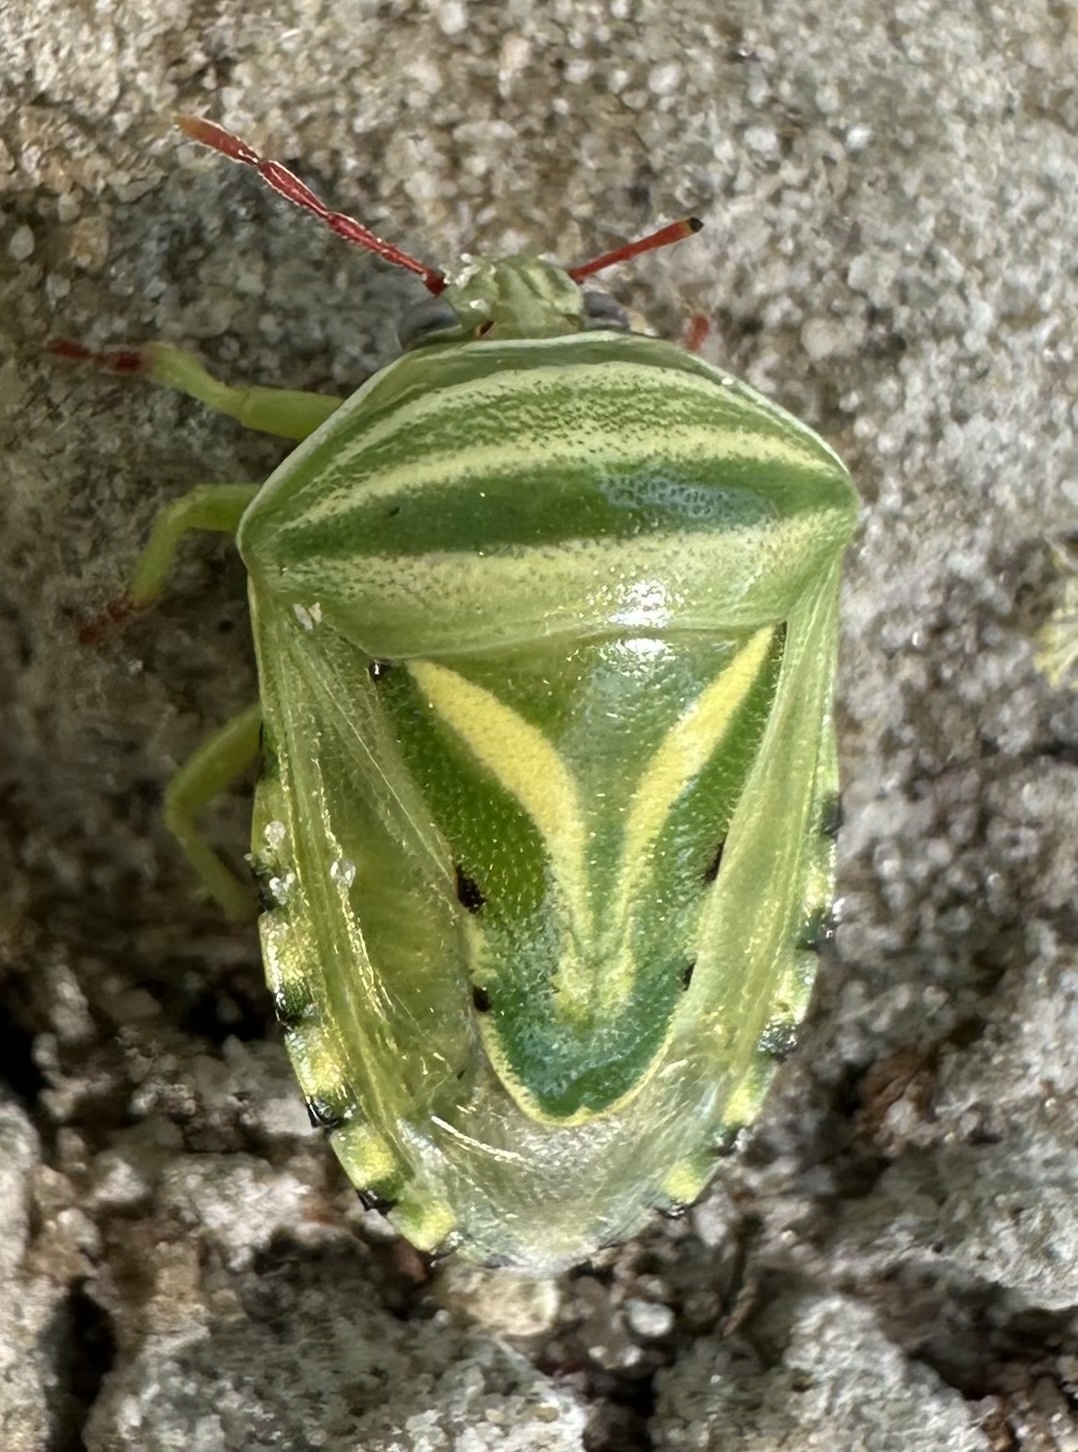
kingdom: Animalia
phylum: Arthropoda
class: Insecta
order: Hemiptera
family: Acanthosomatidae
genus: Lindbergicoris
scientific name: Lindbergicoris Platacantha lutea
